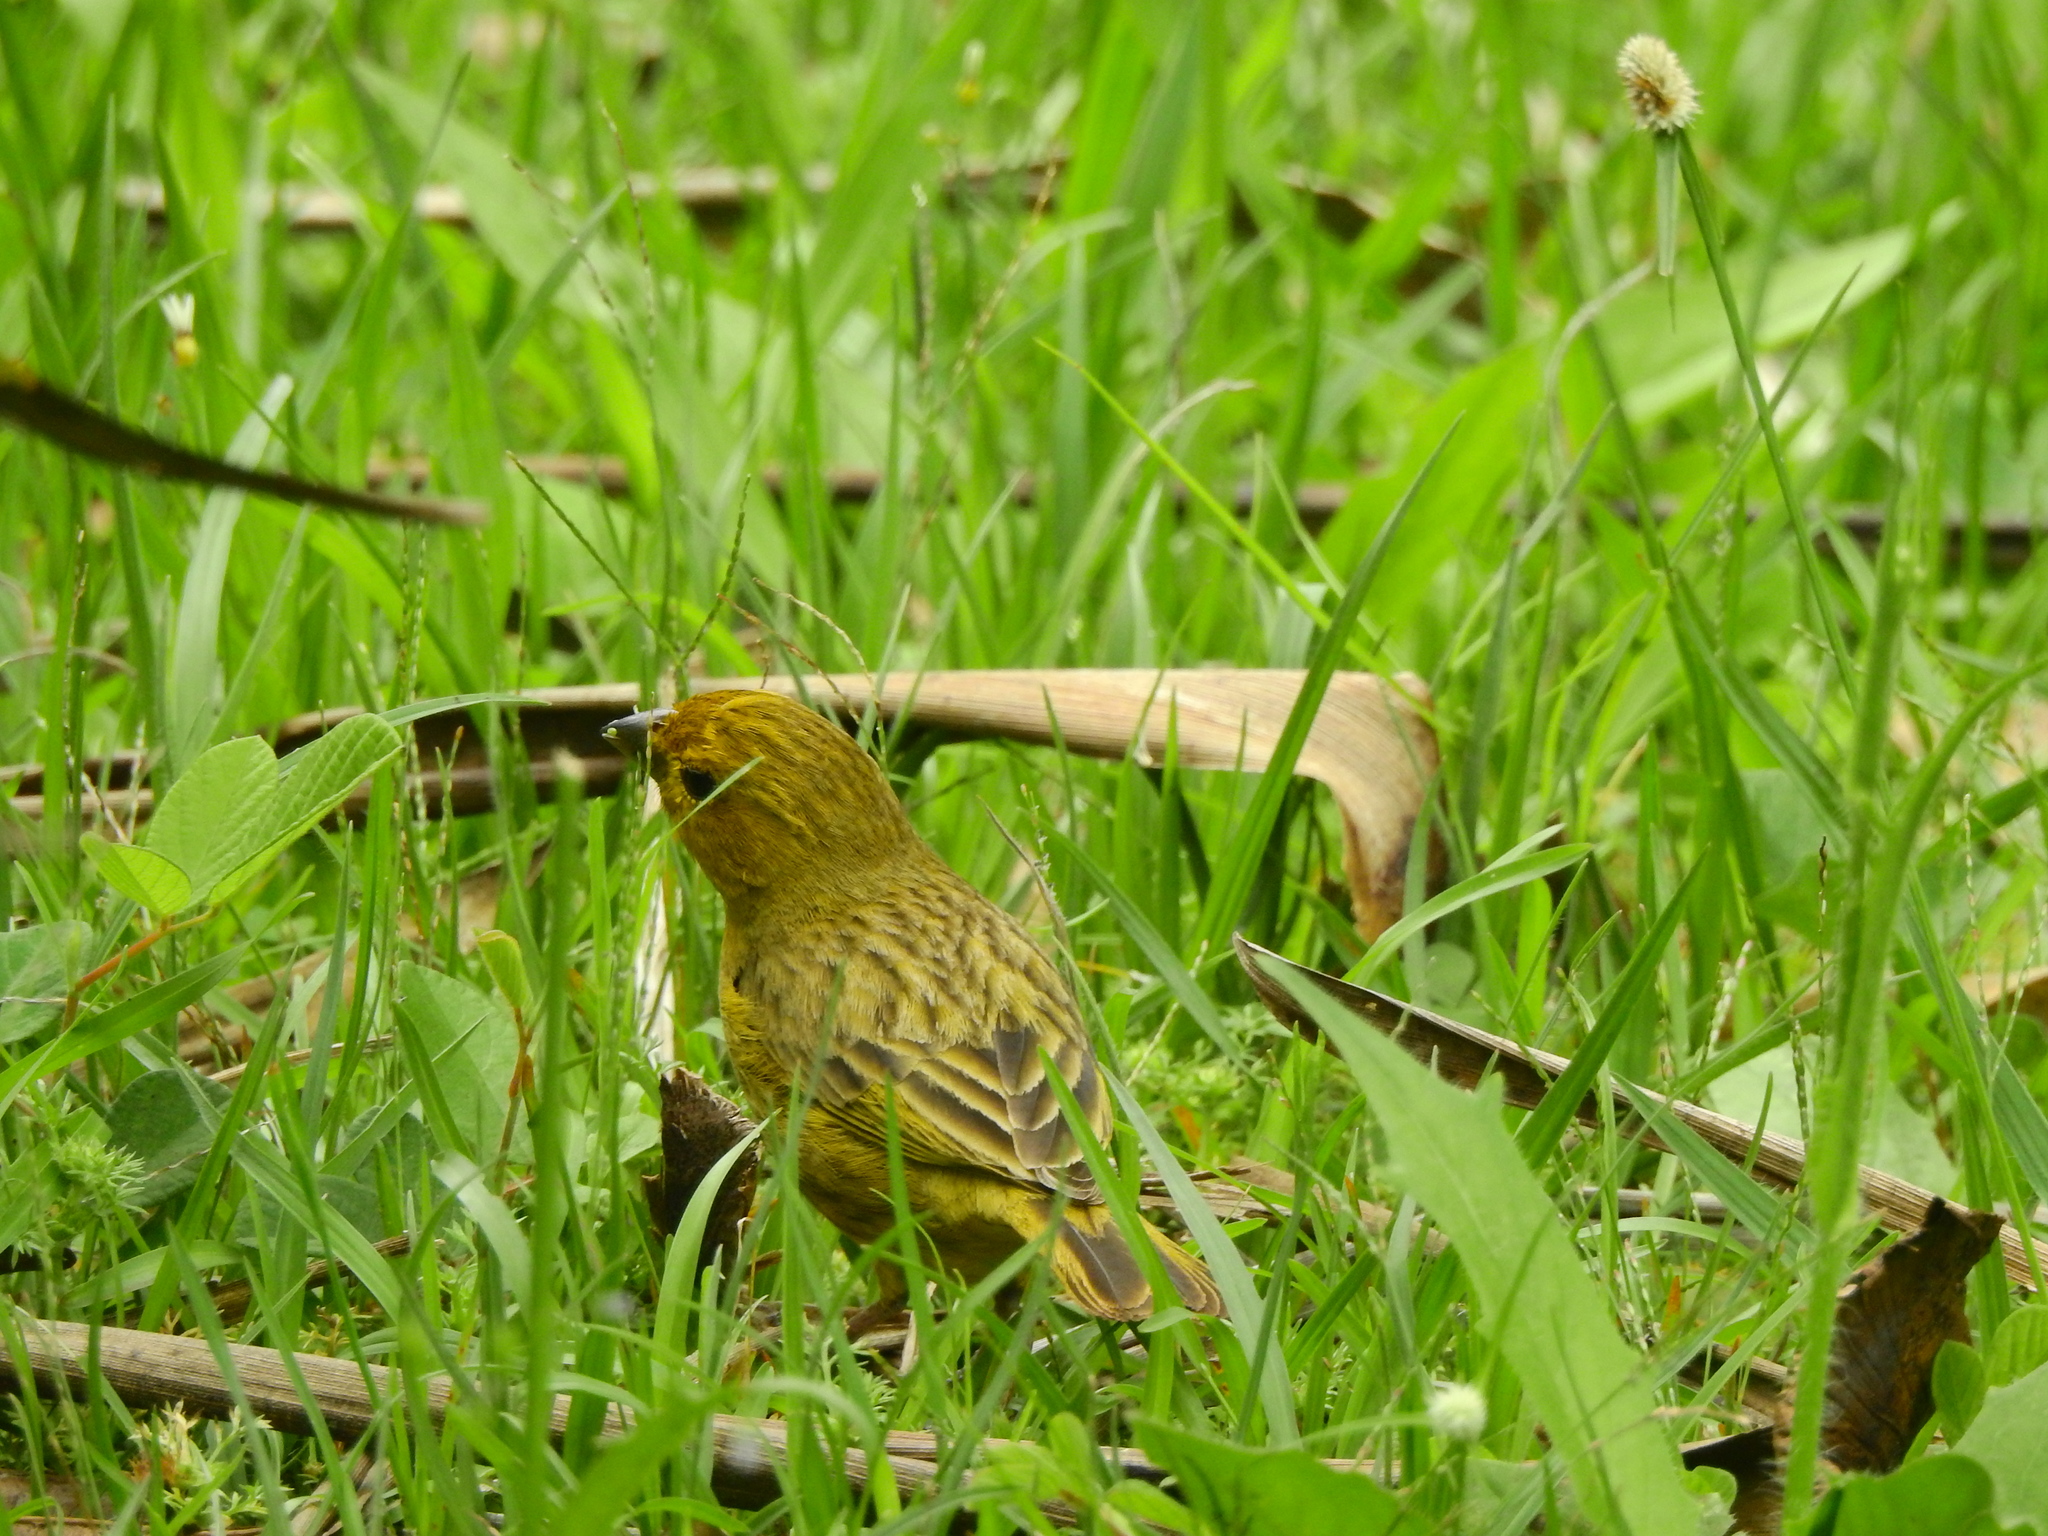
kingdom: Animalia
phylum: Chordata
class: Aves
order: Passeriformes
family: Thraupidae
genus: Sicalis
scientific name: Sicalis flaveola
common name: Saffron finch
